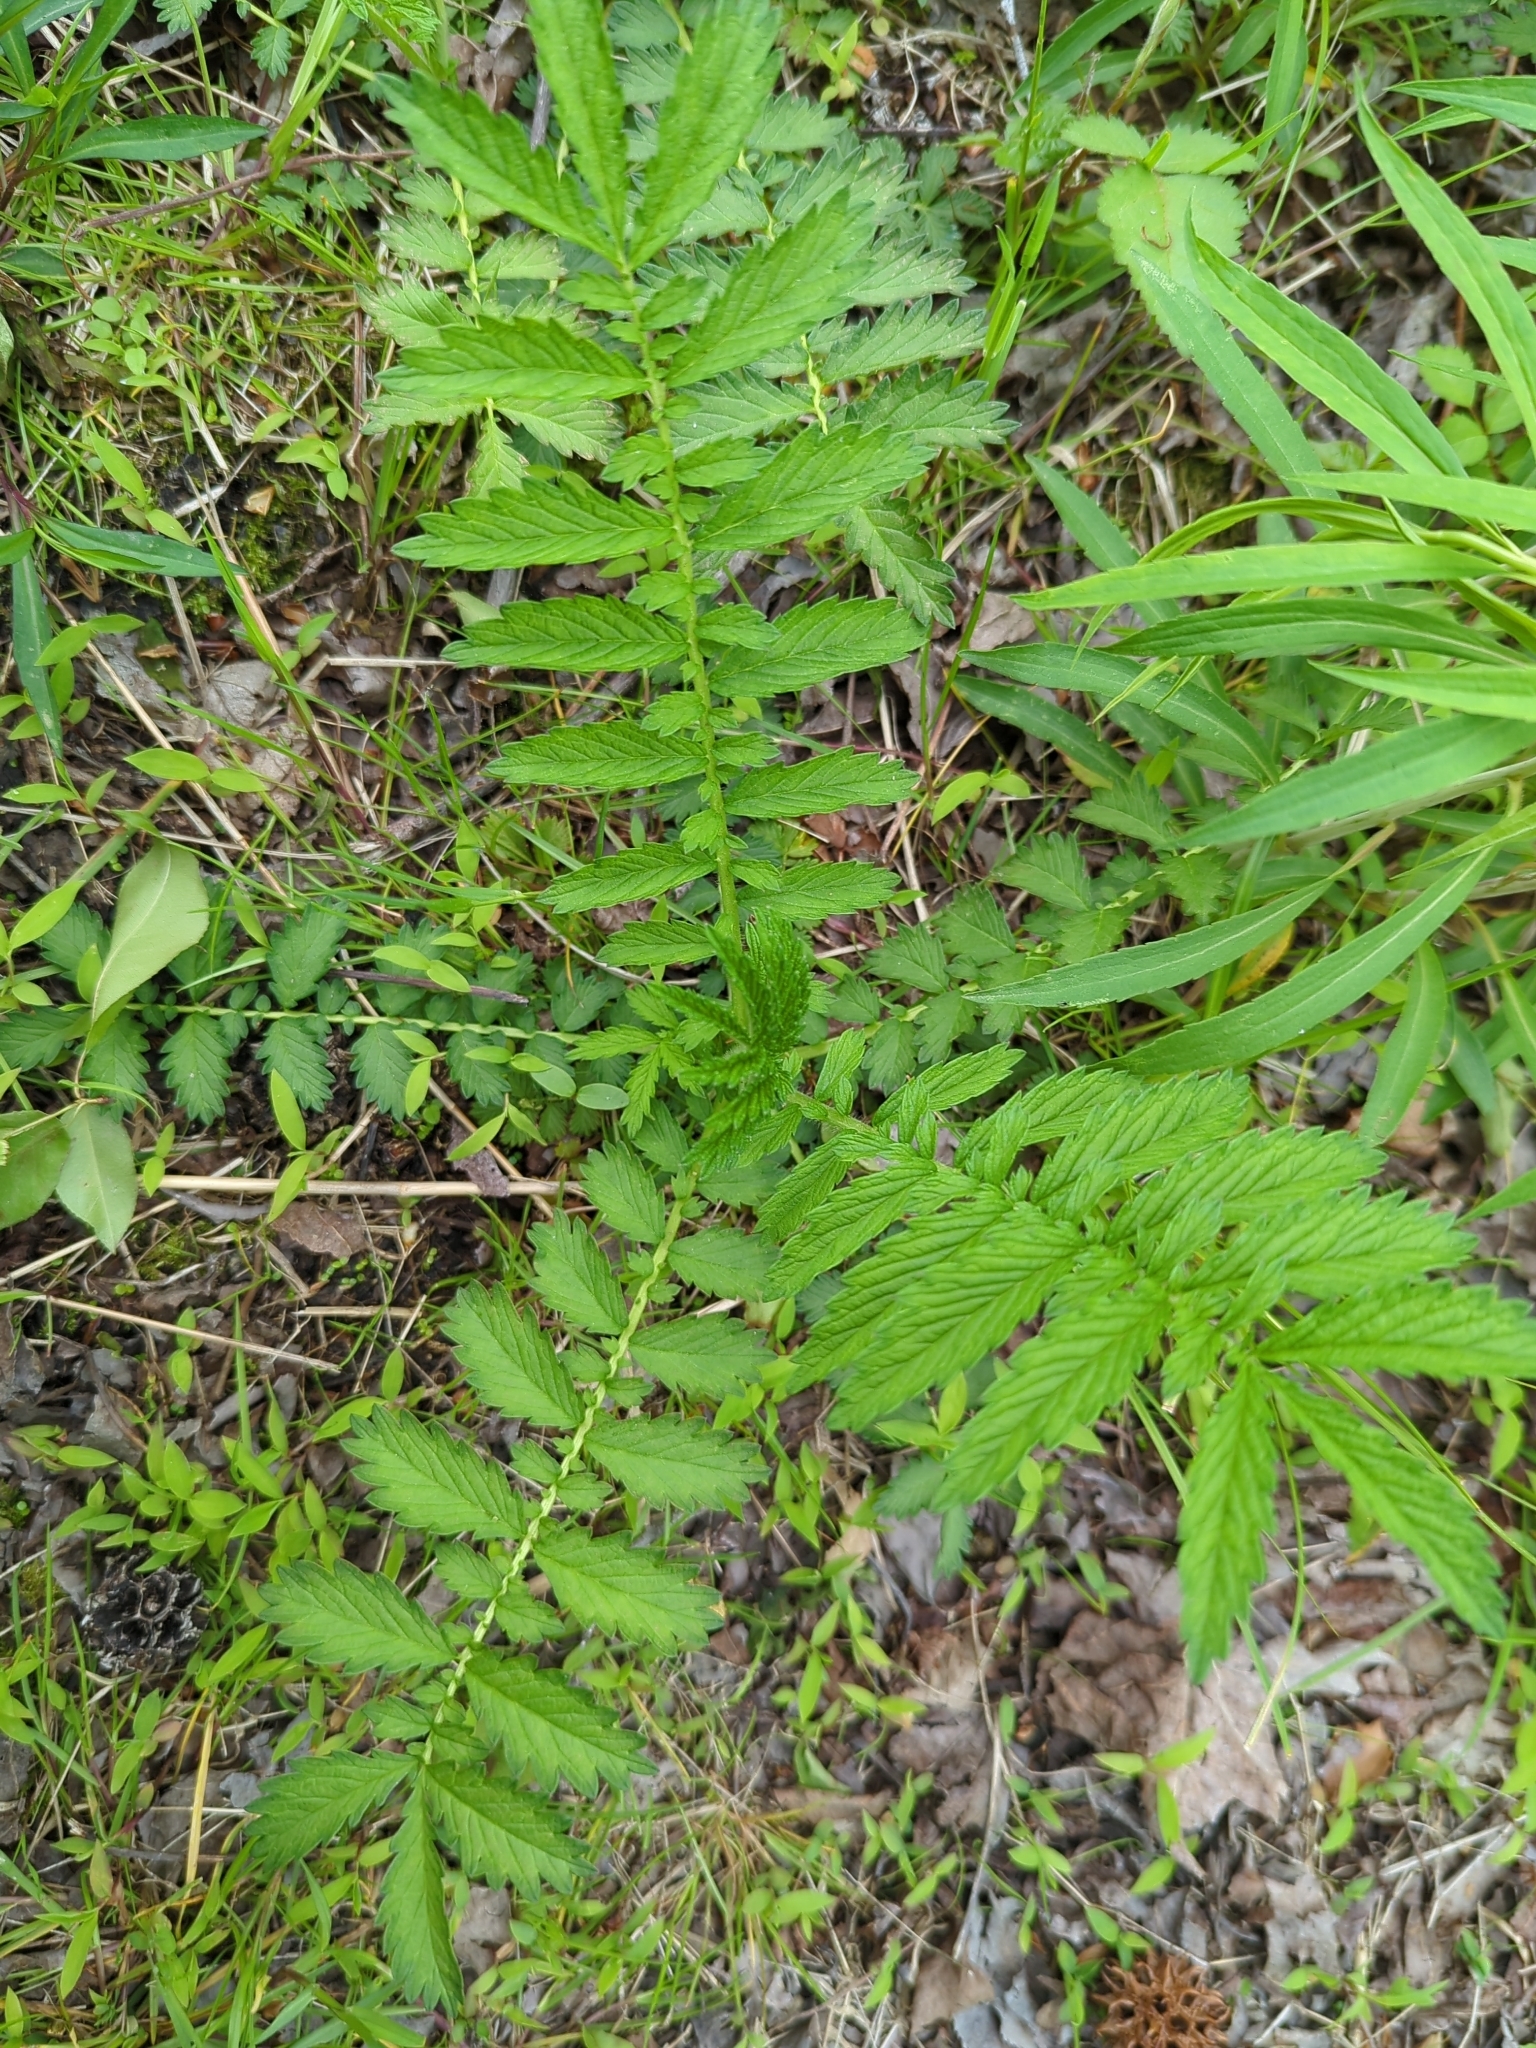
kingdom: Plantae
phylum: Tracheophyta
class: Magnoliopsida
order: Rosales
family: Rosaceae
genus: Agrimonia
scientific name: Agrimonia parviflora
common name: Harvest-lice
